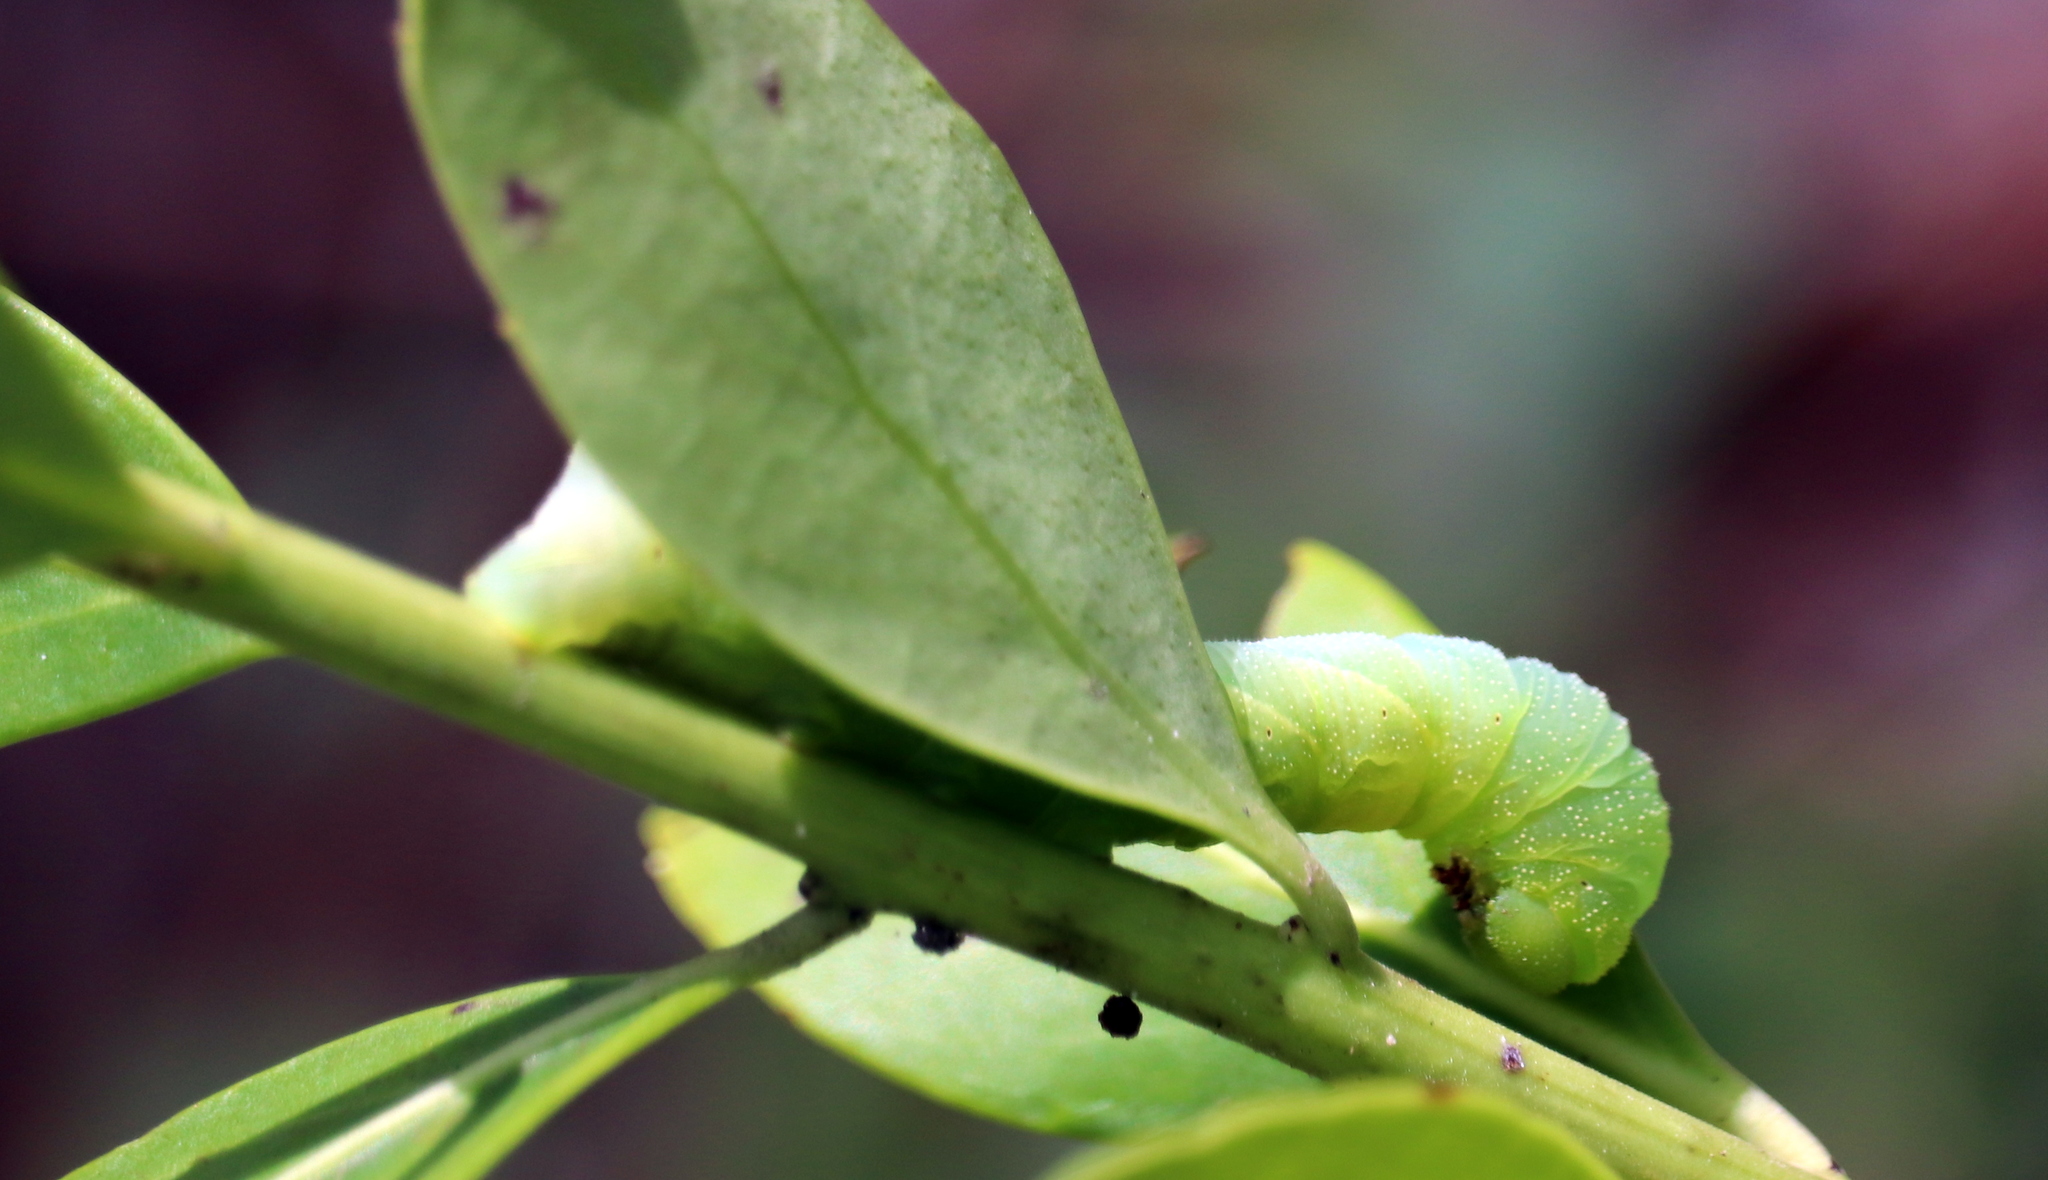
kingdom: Animalia
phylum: Arthropoda
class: Insecta
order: Lepidoptera
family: Sphingidae
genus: Dolba
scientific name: Dolba hyloeus
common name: Pawpaw sphinx
